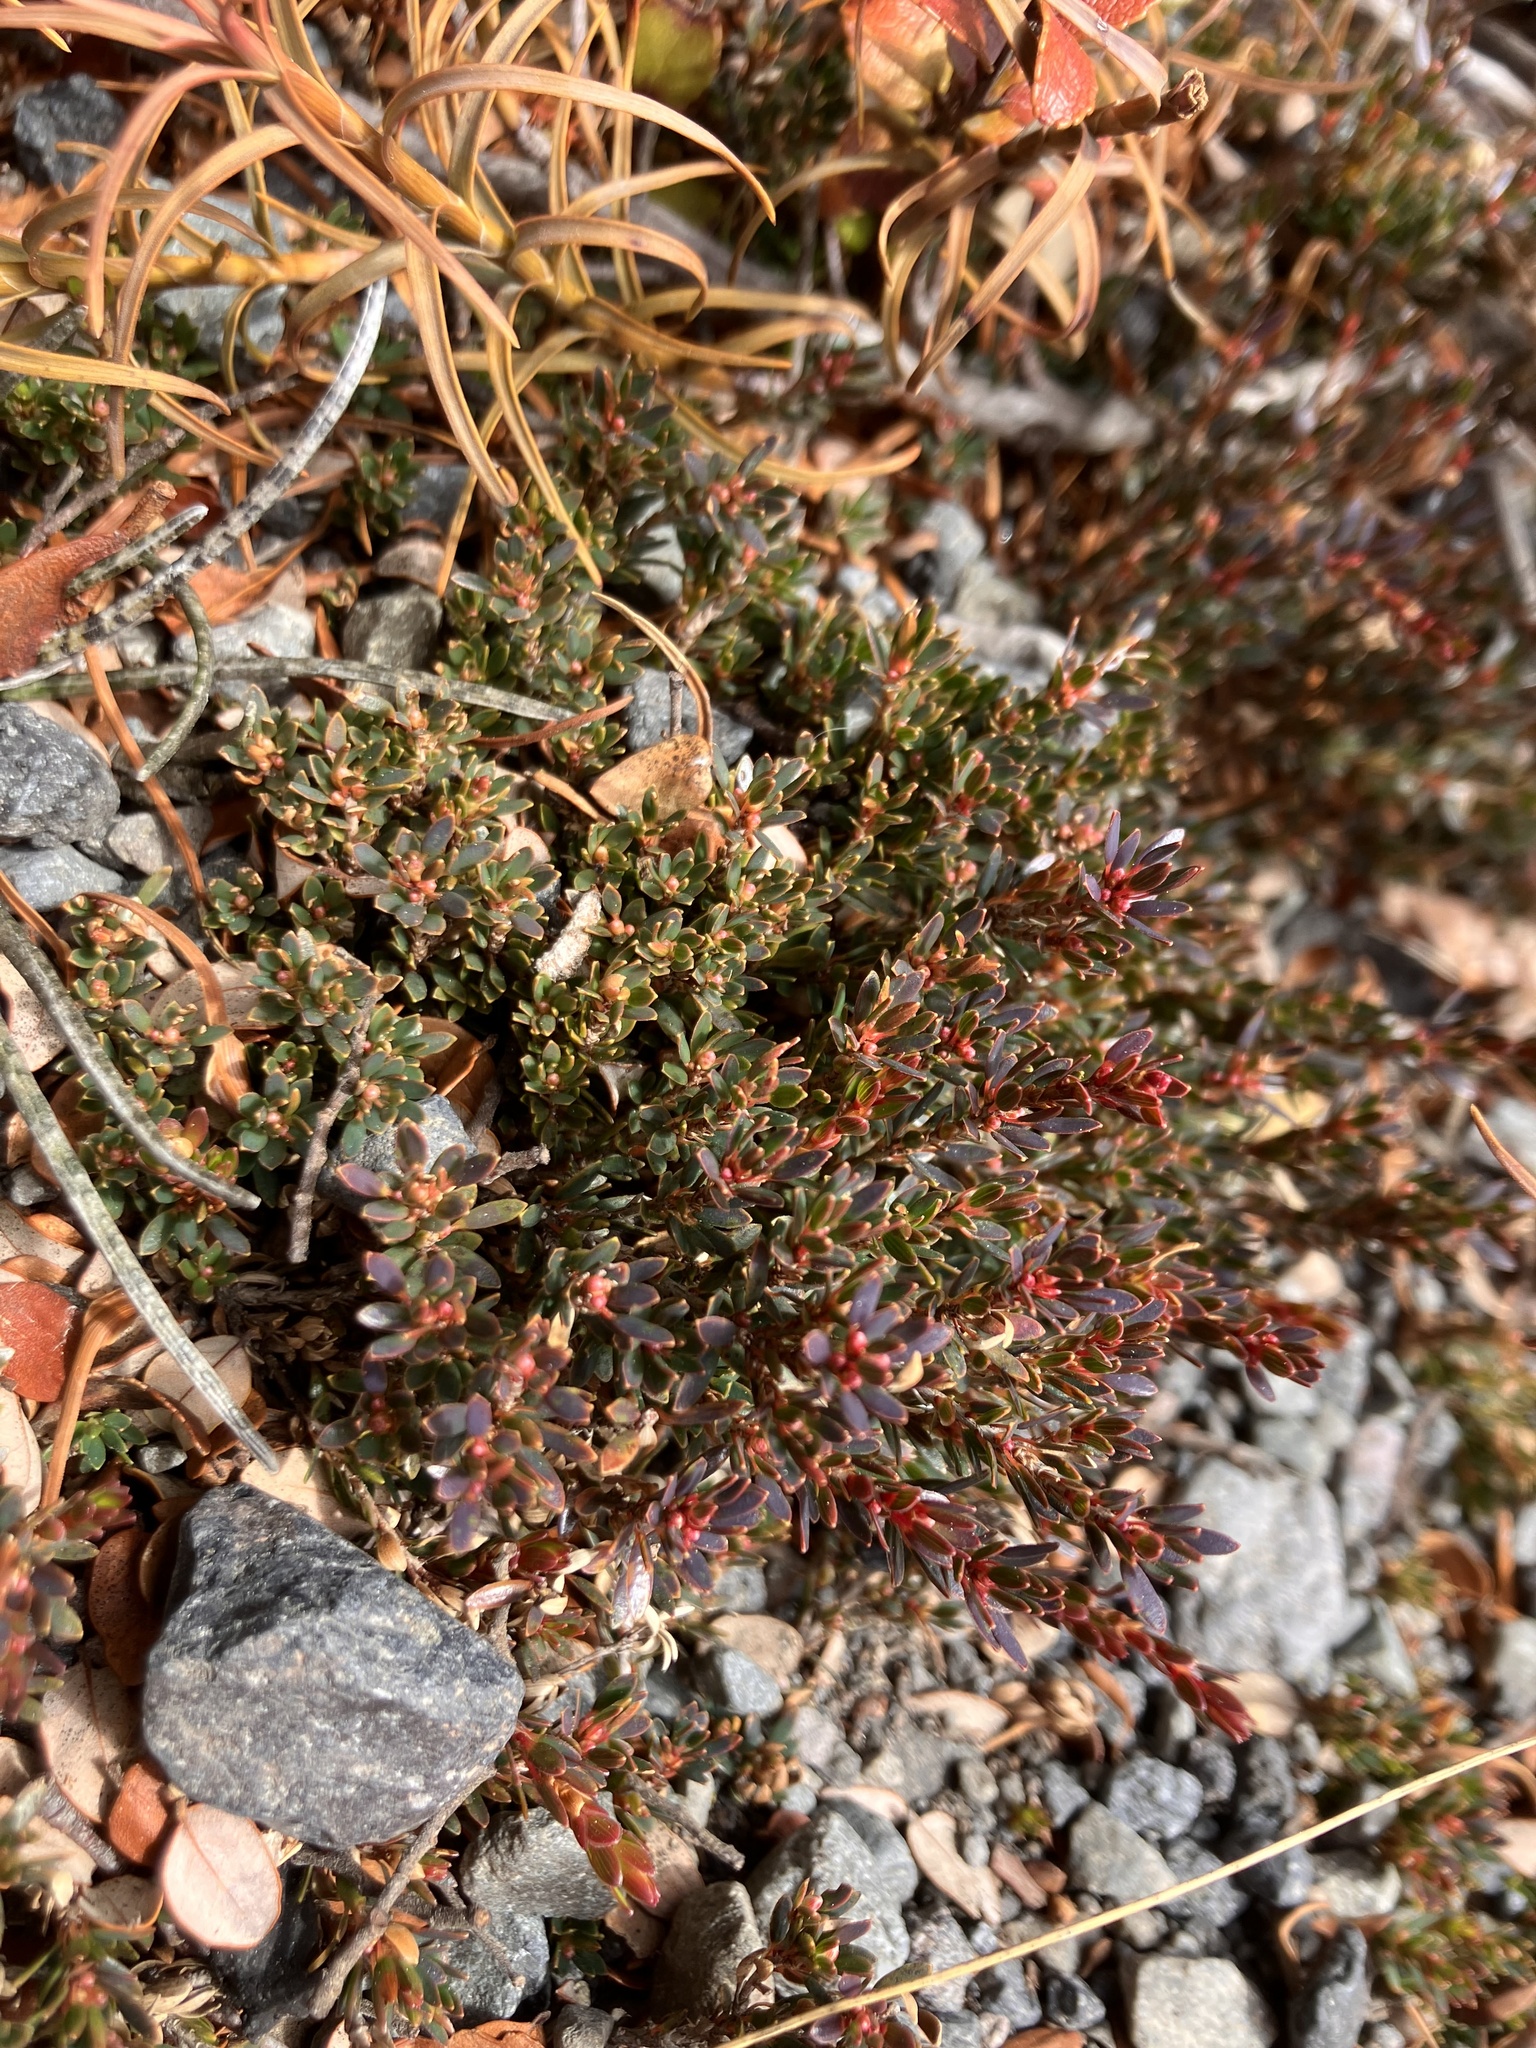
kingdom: Plantae
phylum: Tracheophyta
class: Magnoliopsida
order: Ericales
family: Ericaceae
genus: Pentachondra
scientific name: Pentachondra pumila
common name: Carpet-heath
